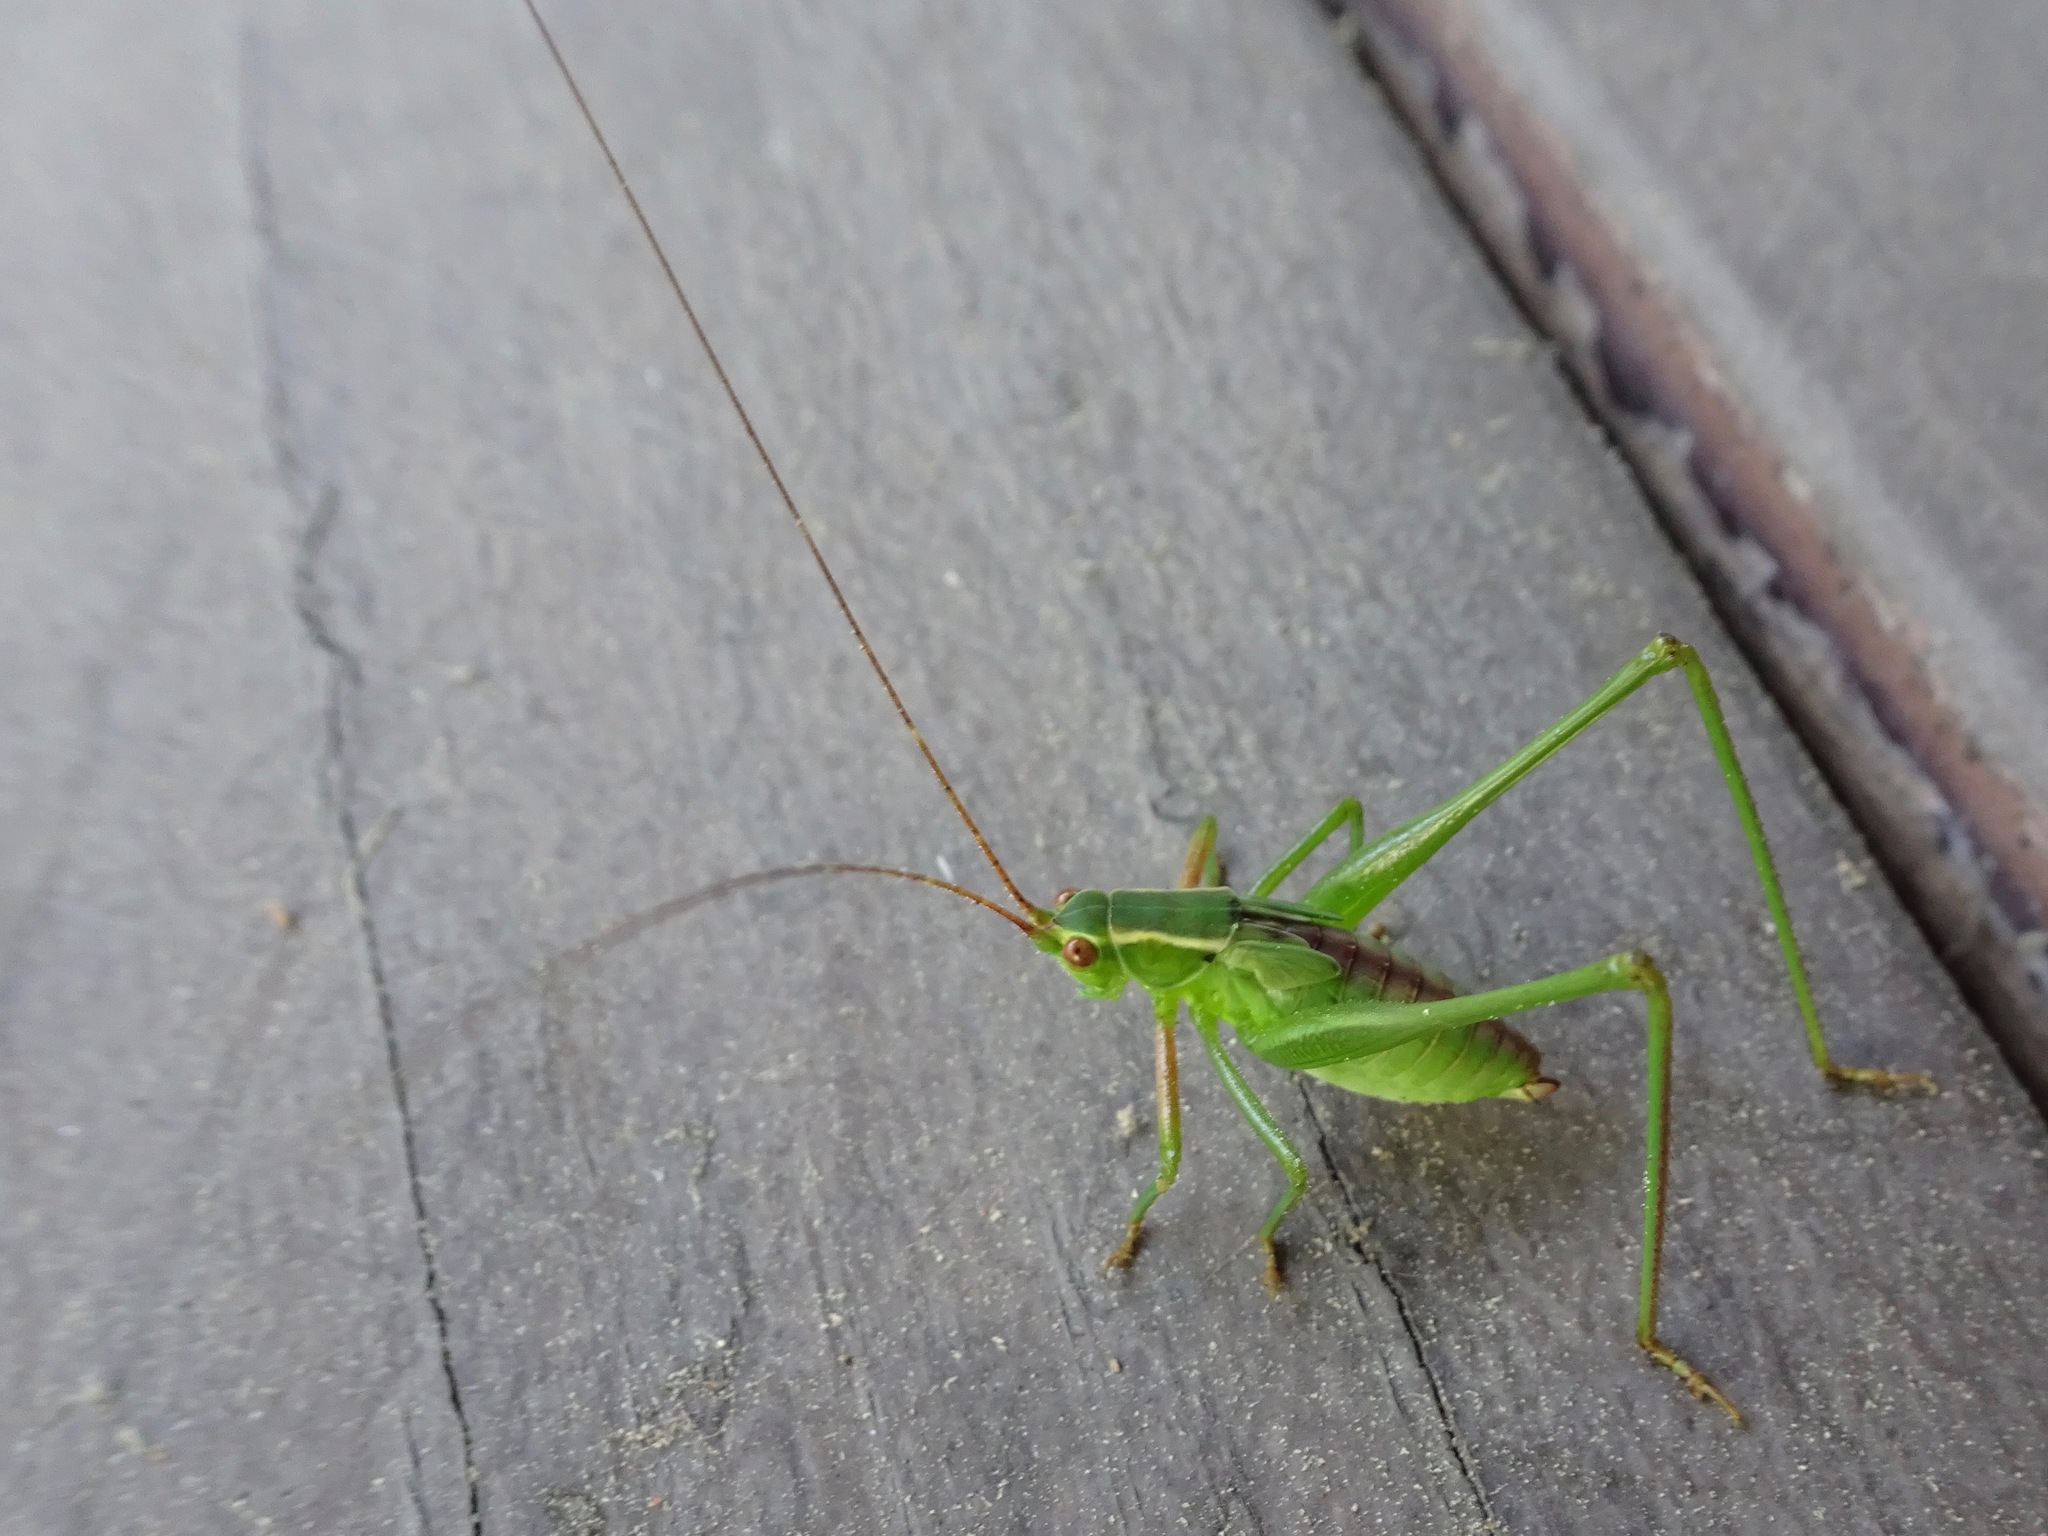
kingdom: Animalia
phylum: Arthropoda
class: Insecta
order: Orthoptera
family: Tettigoniidae
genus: Scudderia
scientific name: Scudderia
